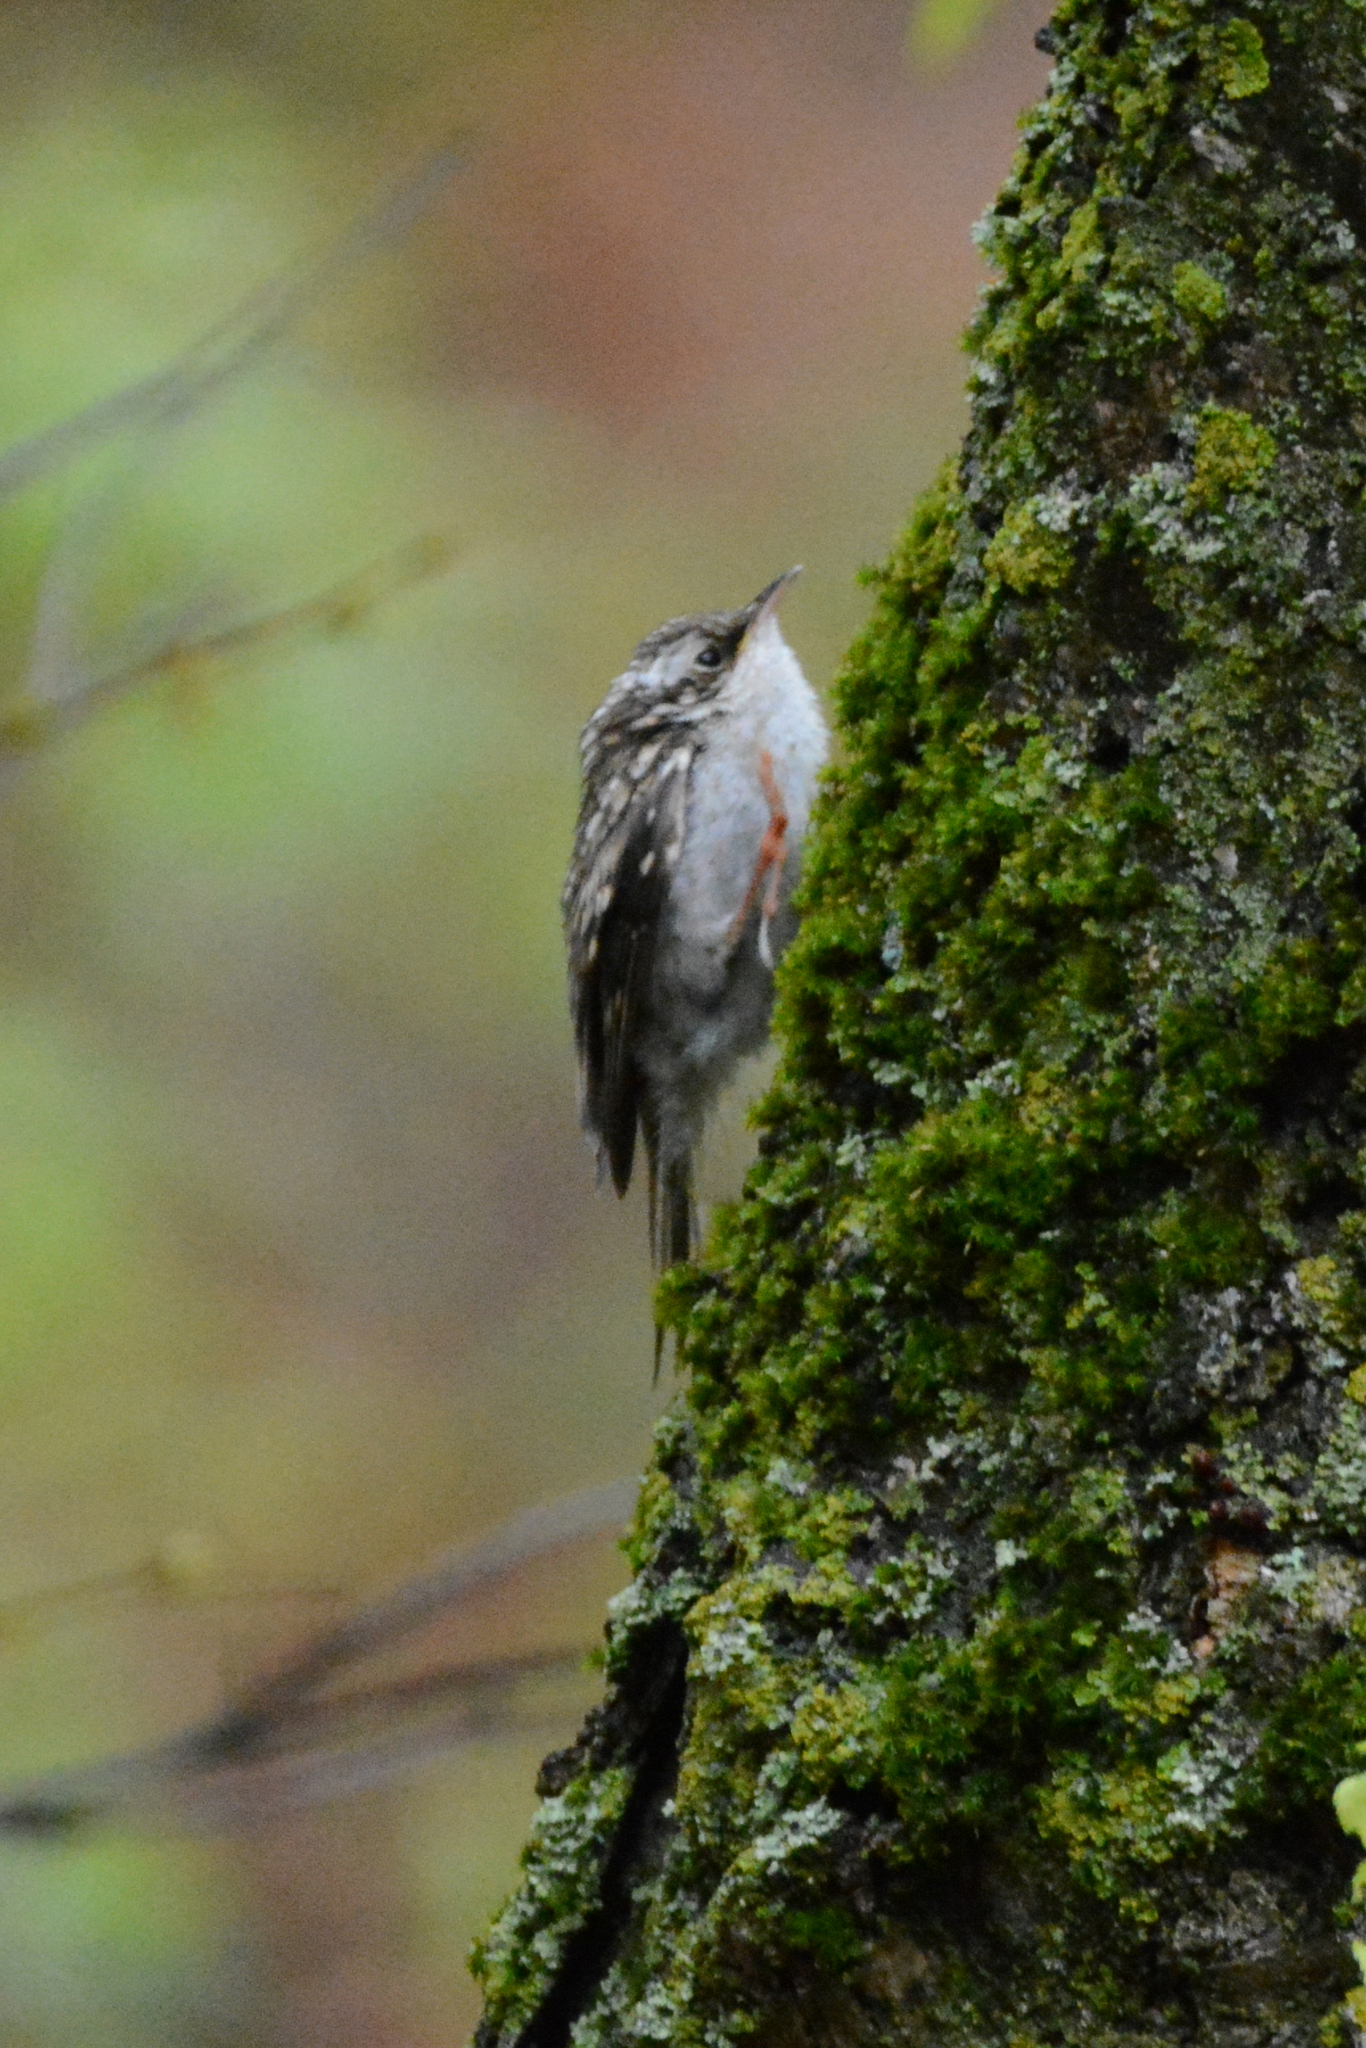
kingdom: Animalia
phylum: Chordata
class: Aves
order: Passeriformes
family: Certhiidae
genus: Certhia
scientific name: Certhia familiaris
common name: Eurasian treecreeper
